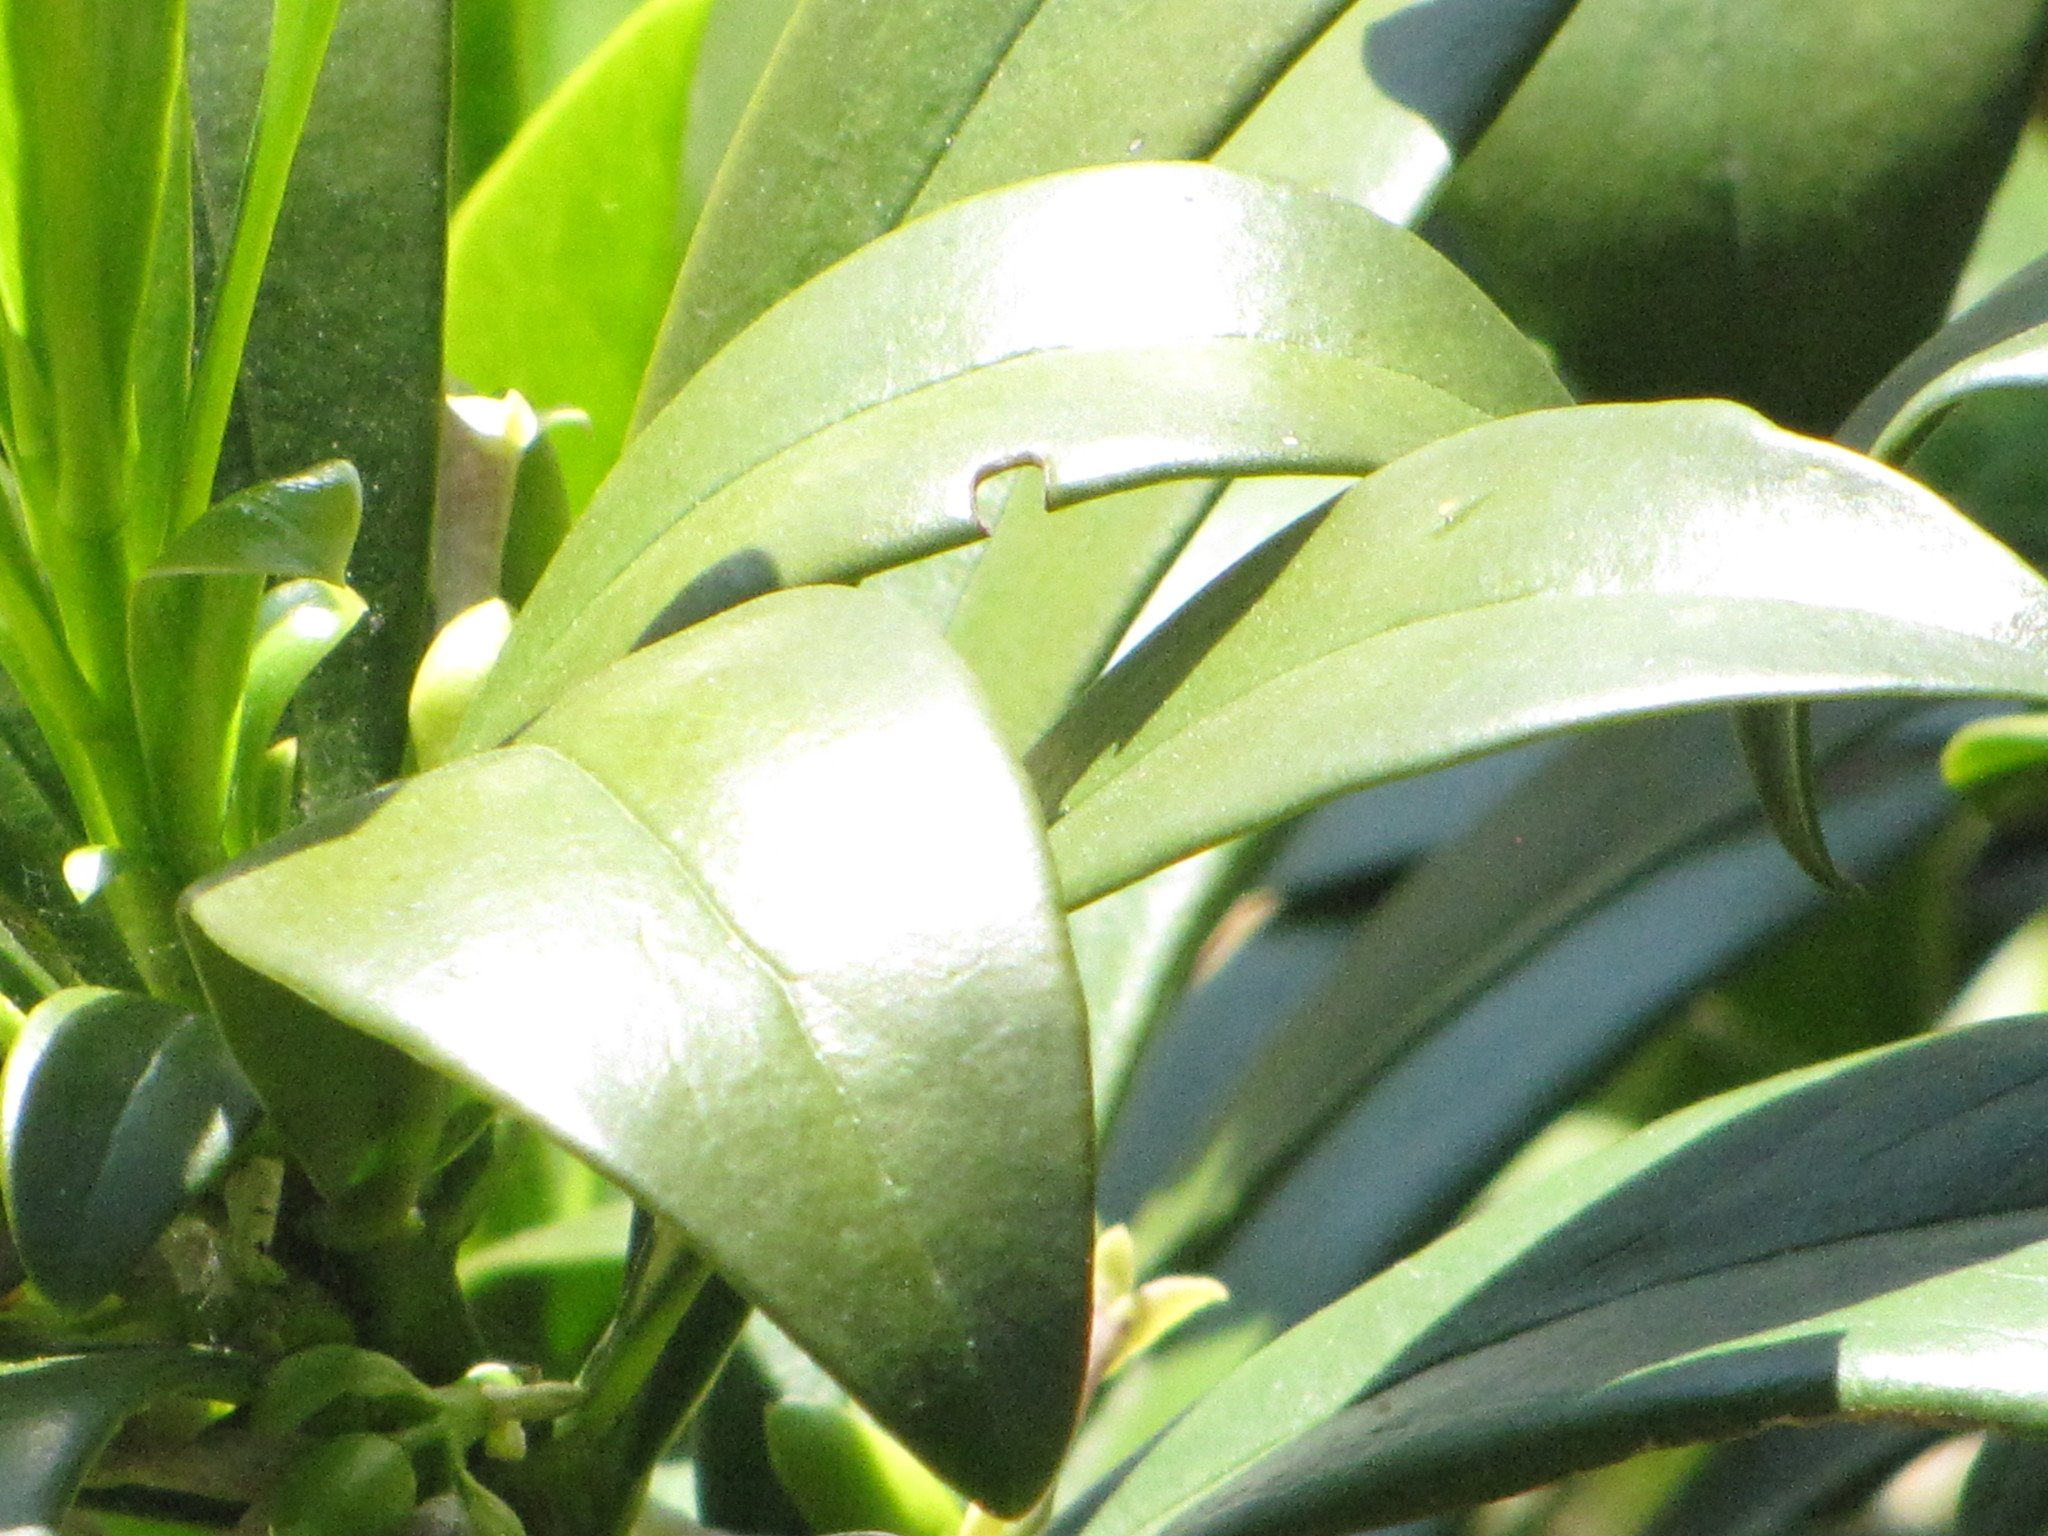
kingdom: Plantae
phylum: Tracheophyta
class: Magnoliopsida
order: Malvales
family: Thymelaeaceae
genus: Daphne
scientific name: Daphne laureola
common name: Spurge-laurel
